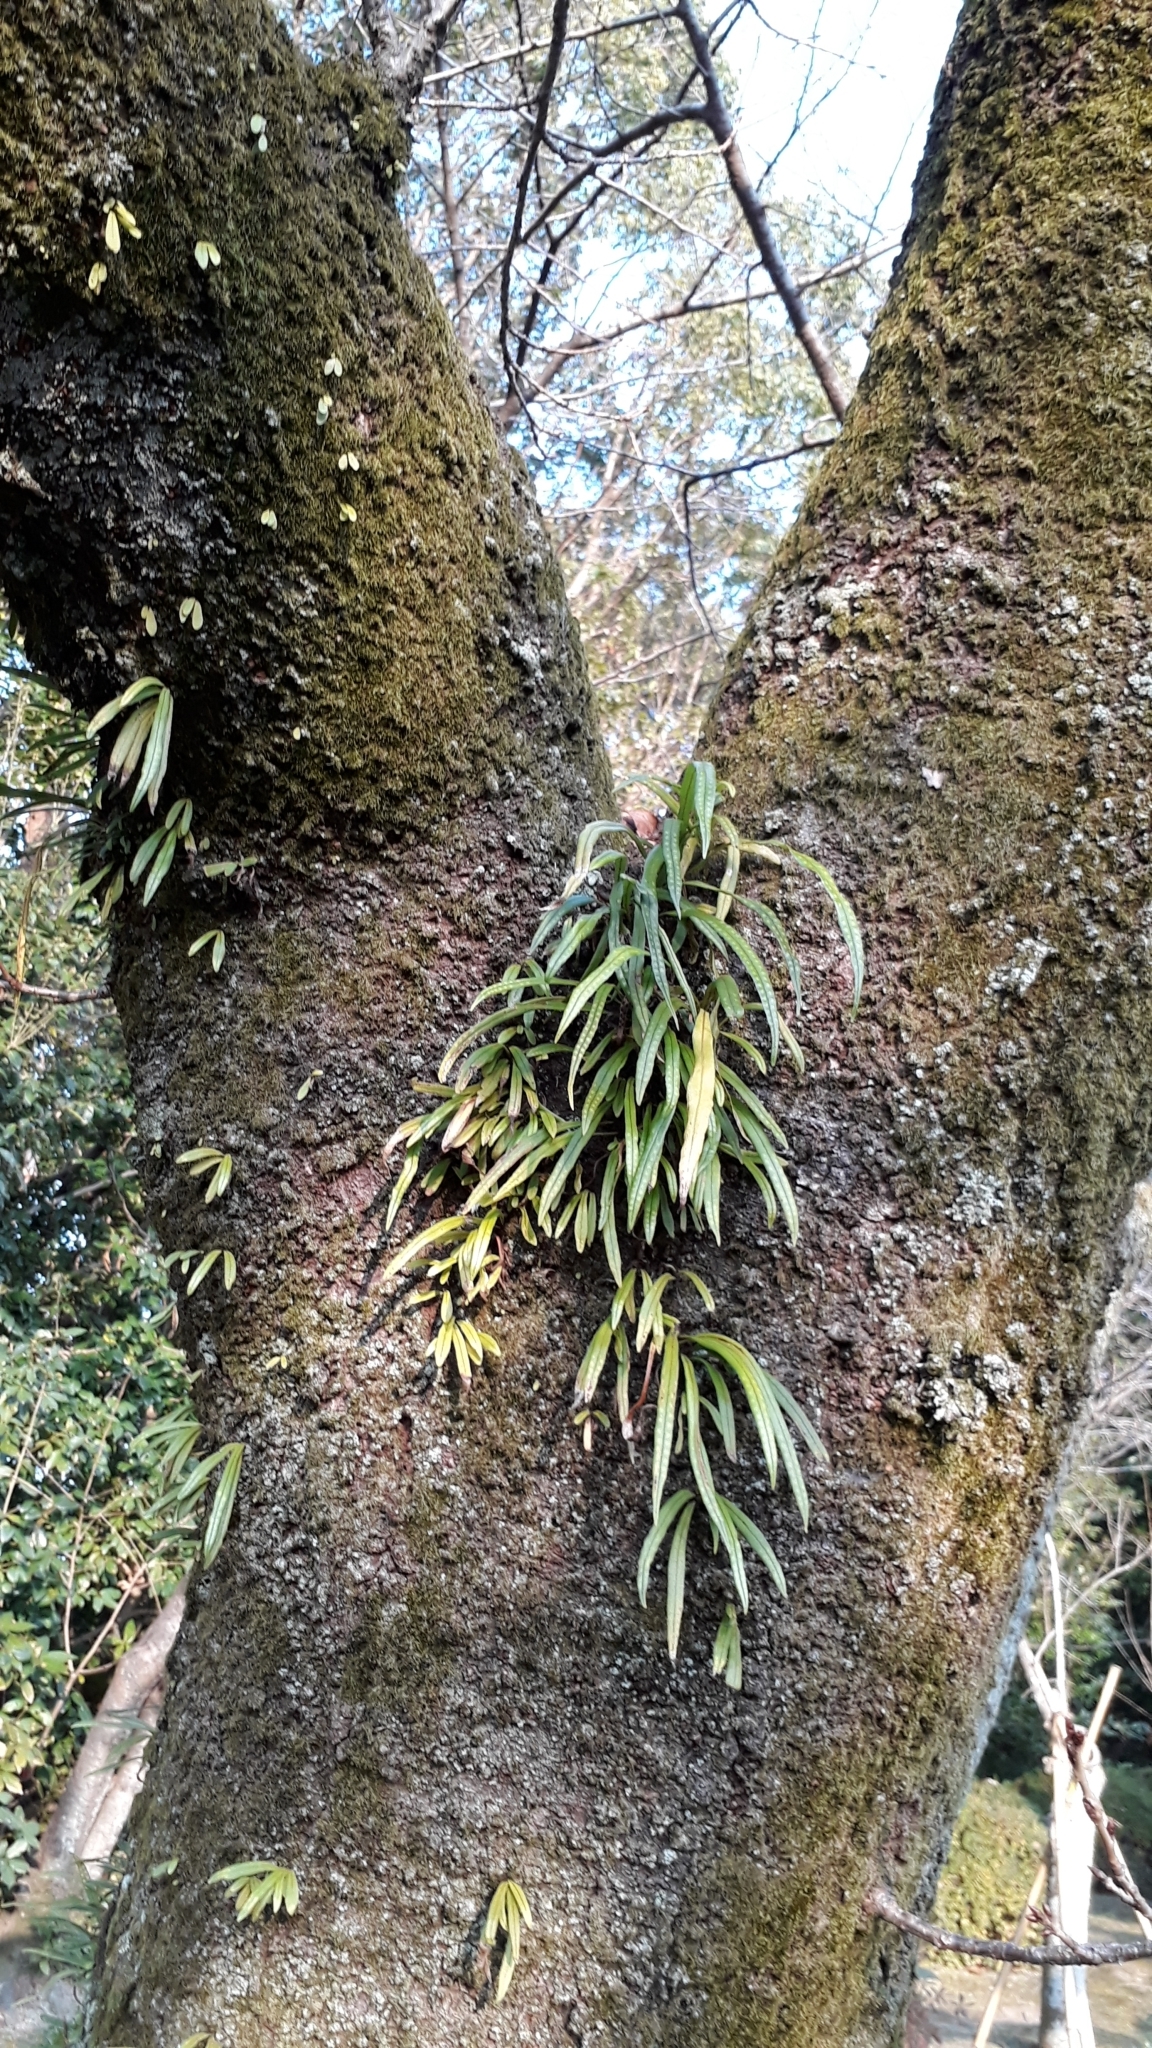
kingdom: Plantae
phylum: Tracheophyta
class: Polypodiopsida
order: Polypodiales
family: Polypodiaceae
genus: Lepisorus
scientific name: Lepisorus thunbergianus
